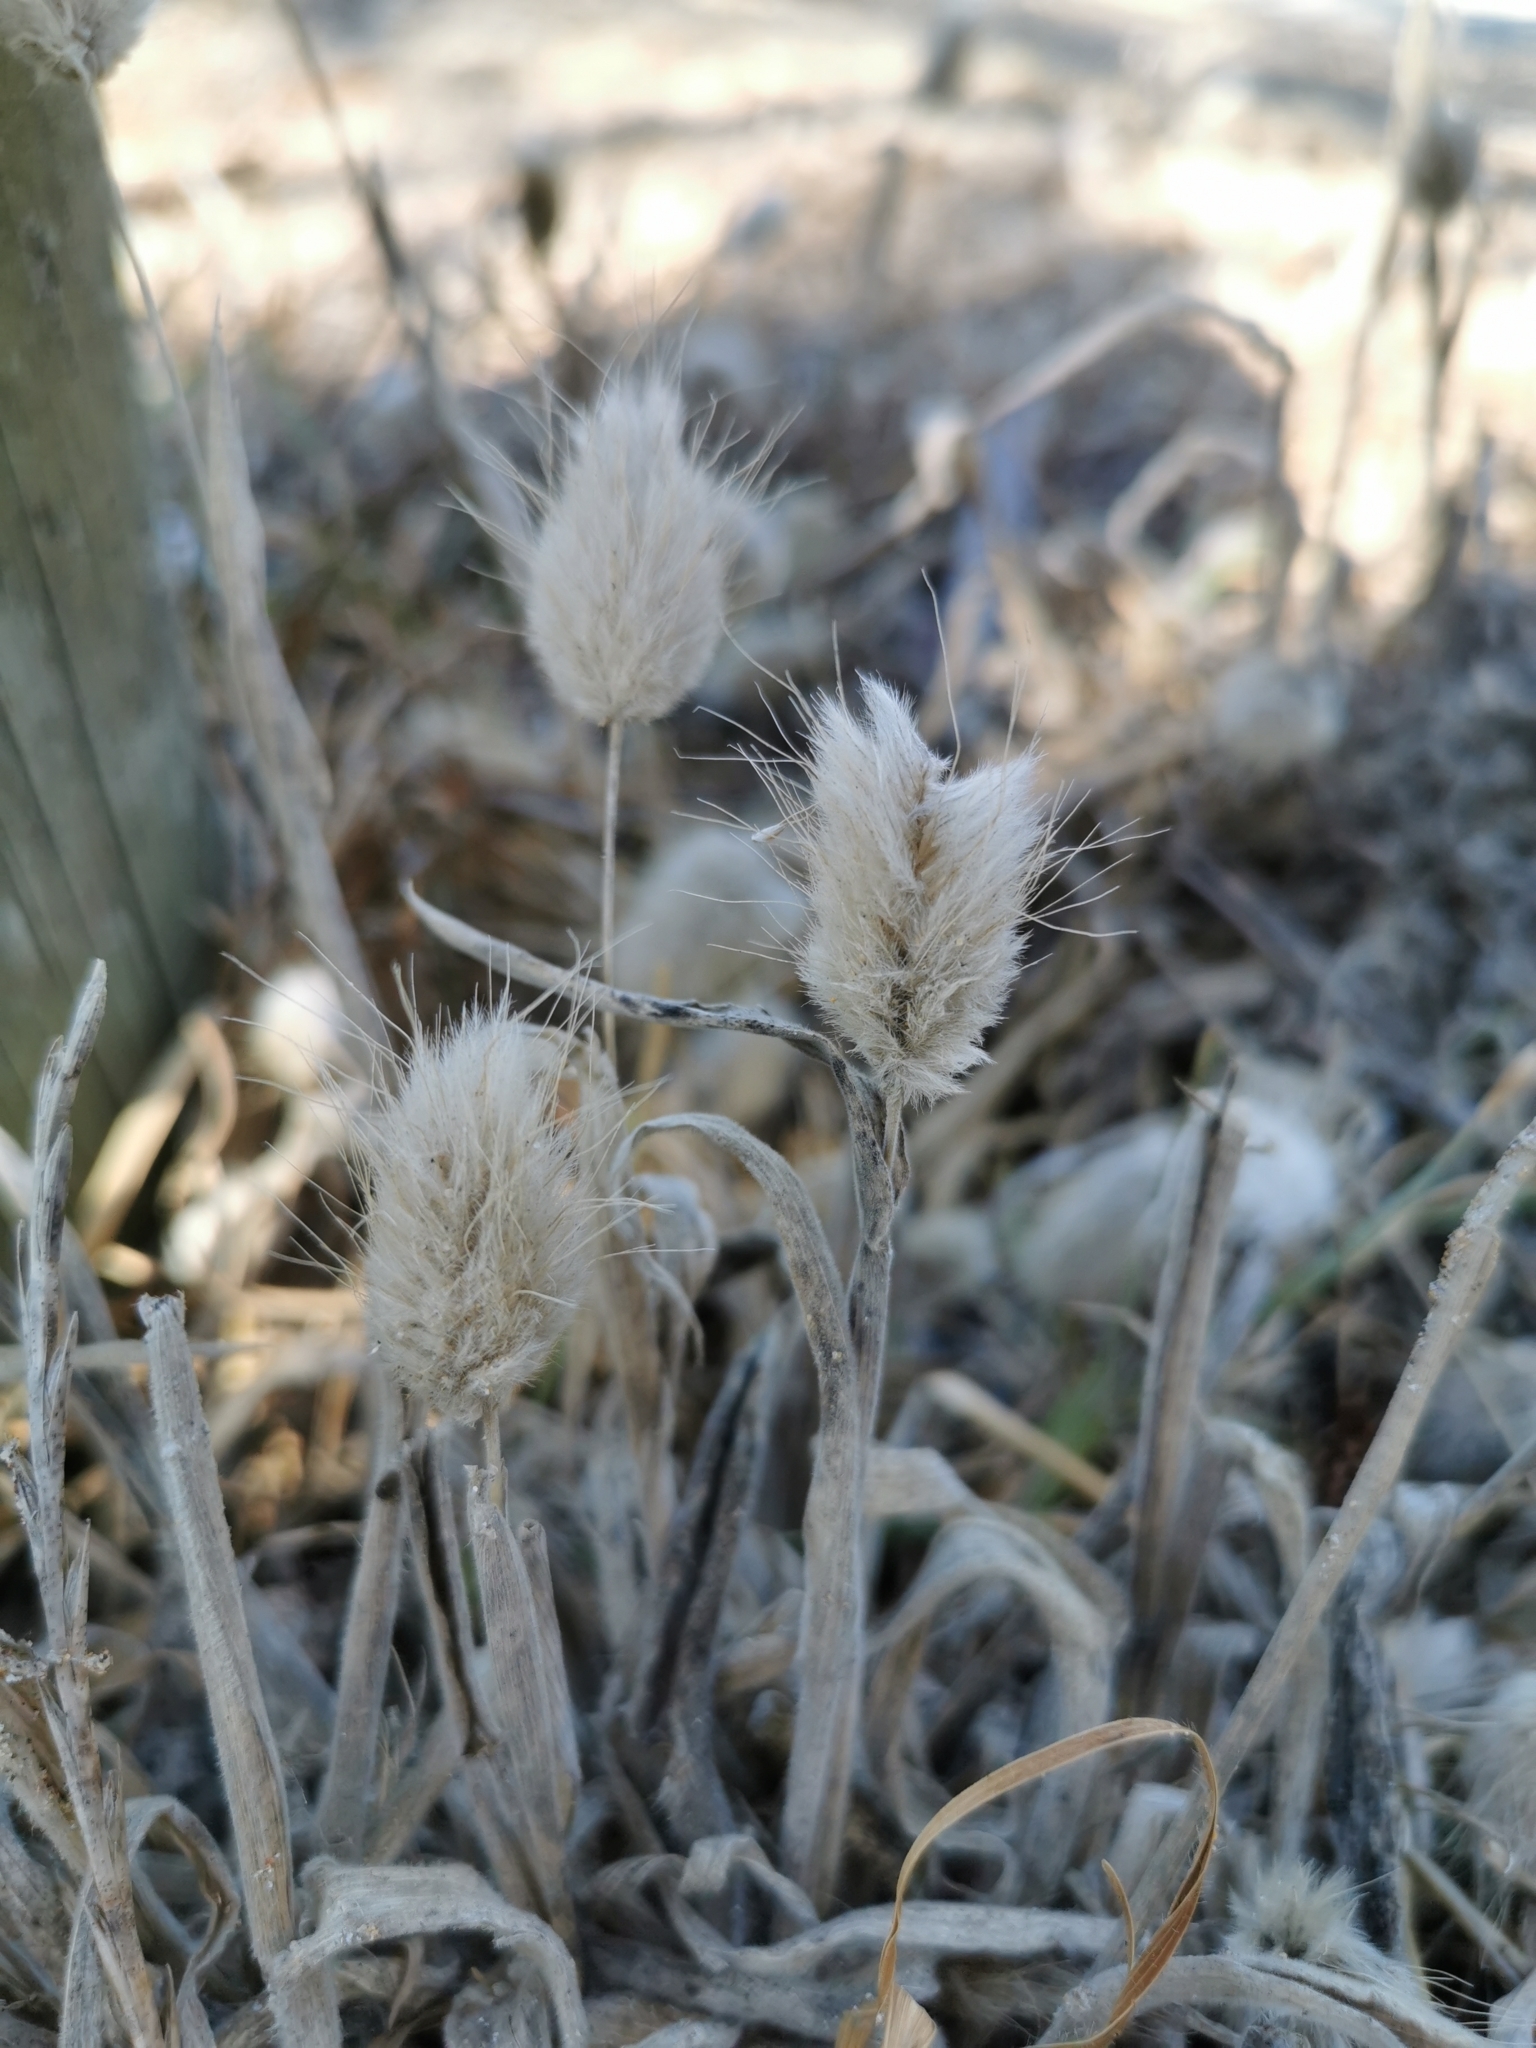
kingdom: Plantae
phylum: Tracheophyta
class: Liliopsida
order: Poales
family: Poaceae
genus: Lagurus
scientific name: Lagurus ovatus
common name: Hare's-tail
